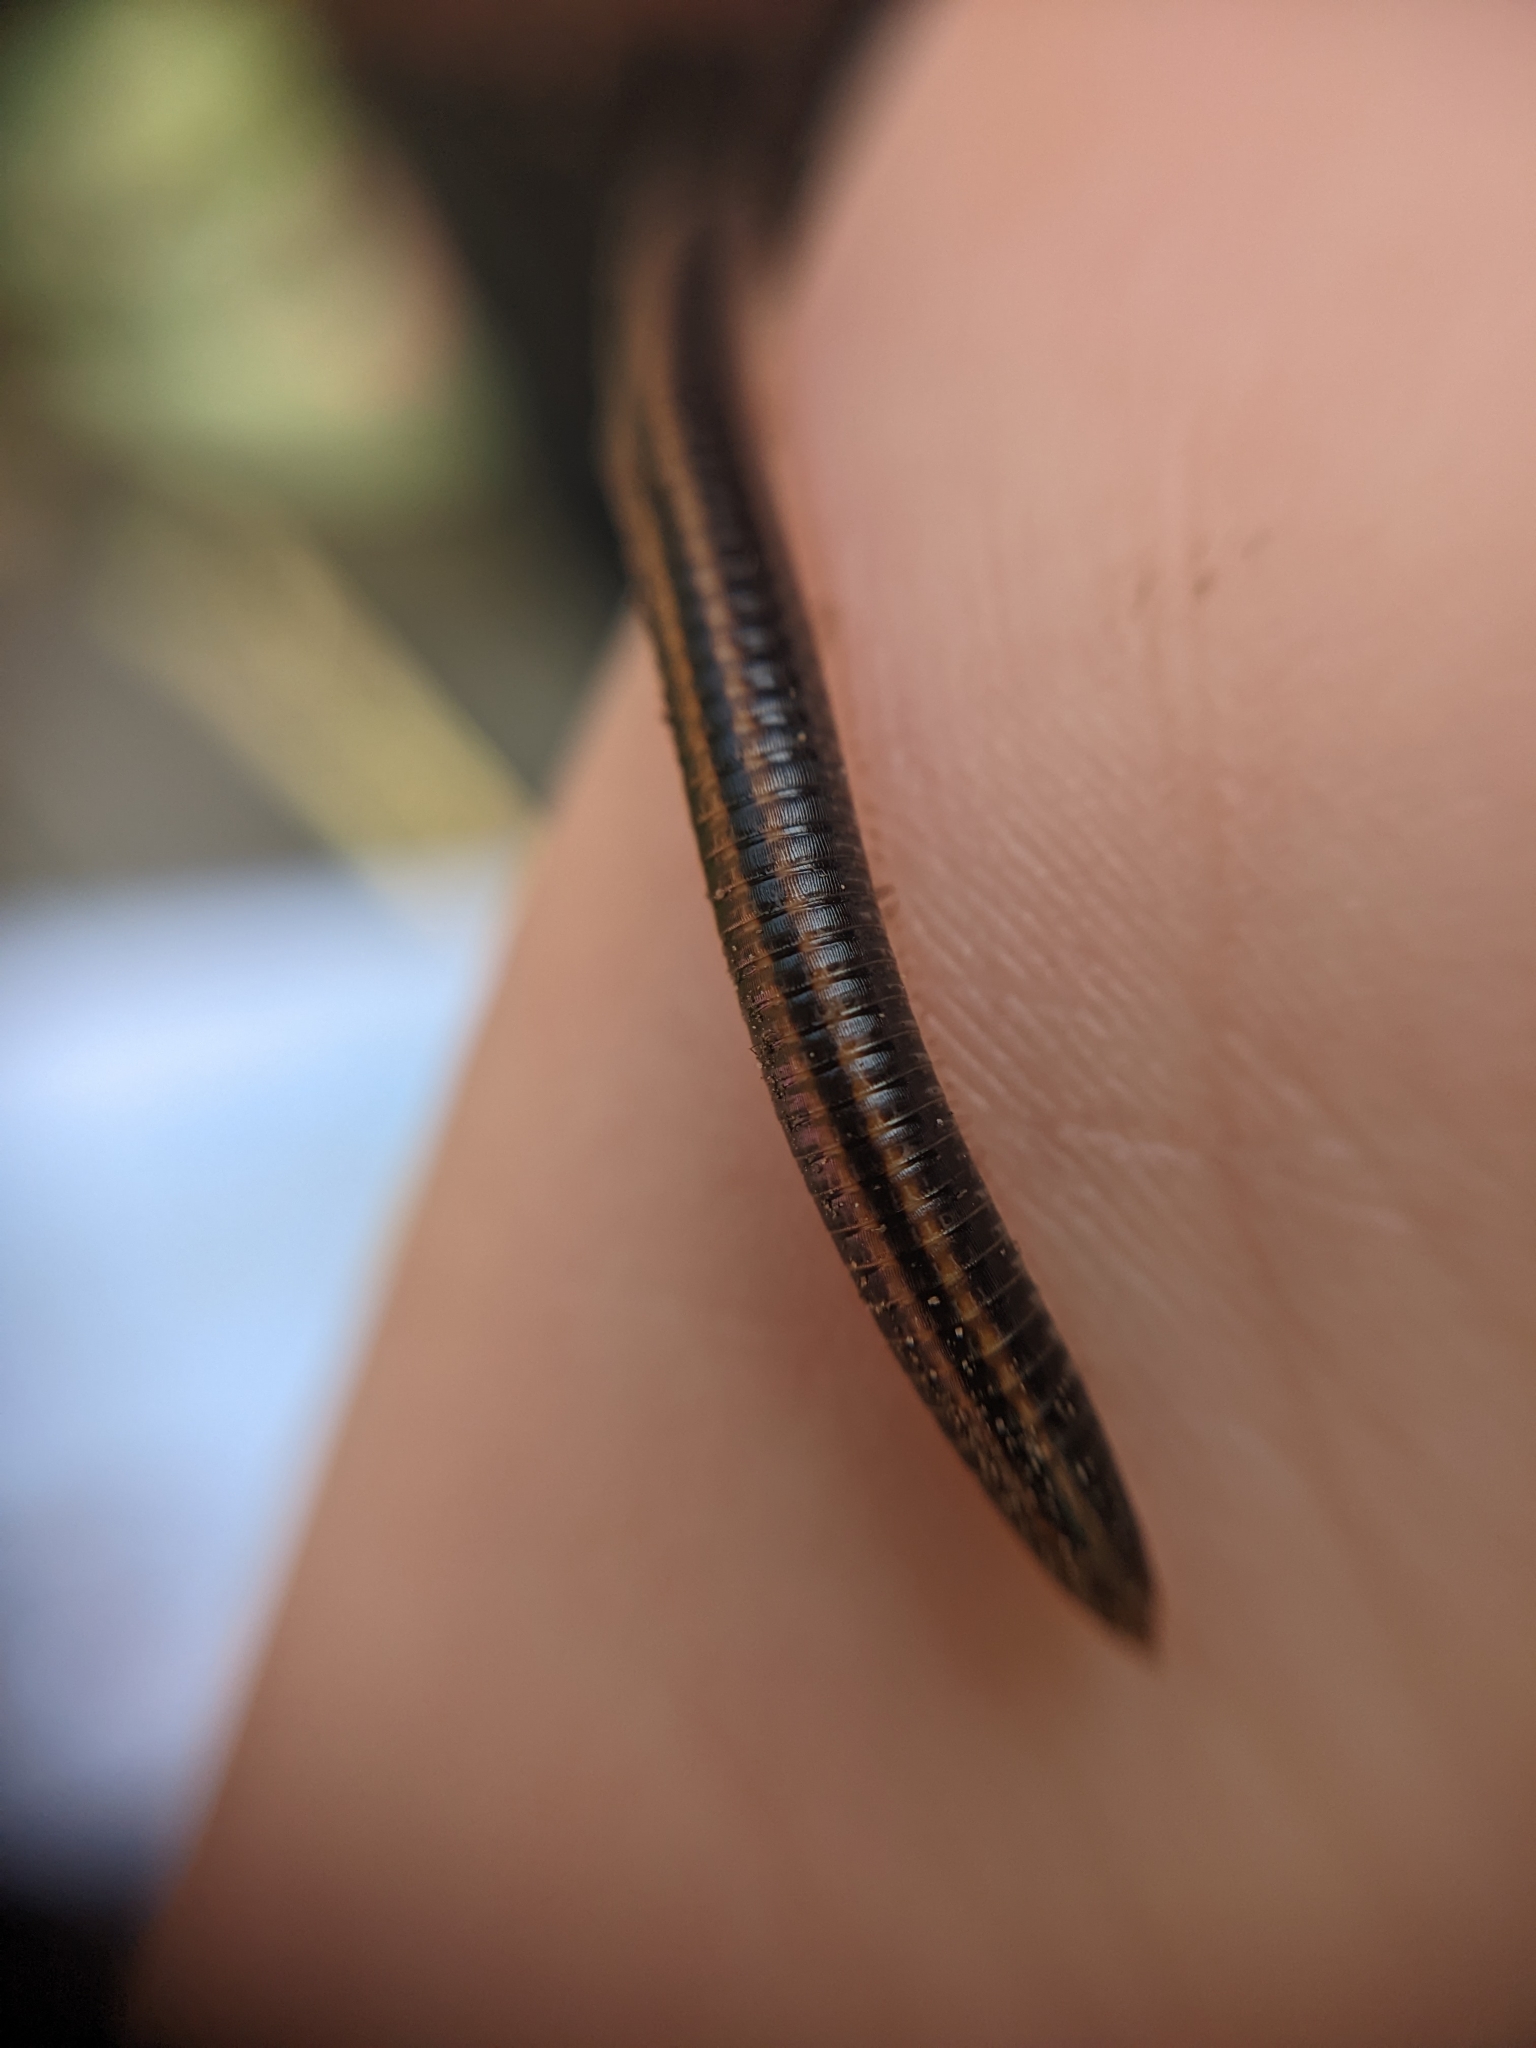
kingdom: Animalia
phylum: Arthropoda
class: Diplopoda
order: Julida
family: Julidae
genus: Ommatoiulus
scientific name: Ommatoiulus sabulosus
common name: Striped millipede
